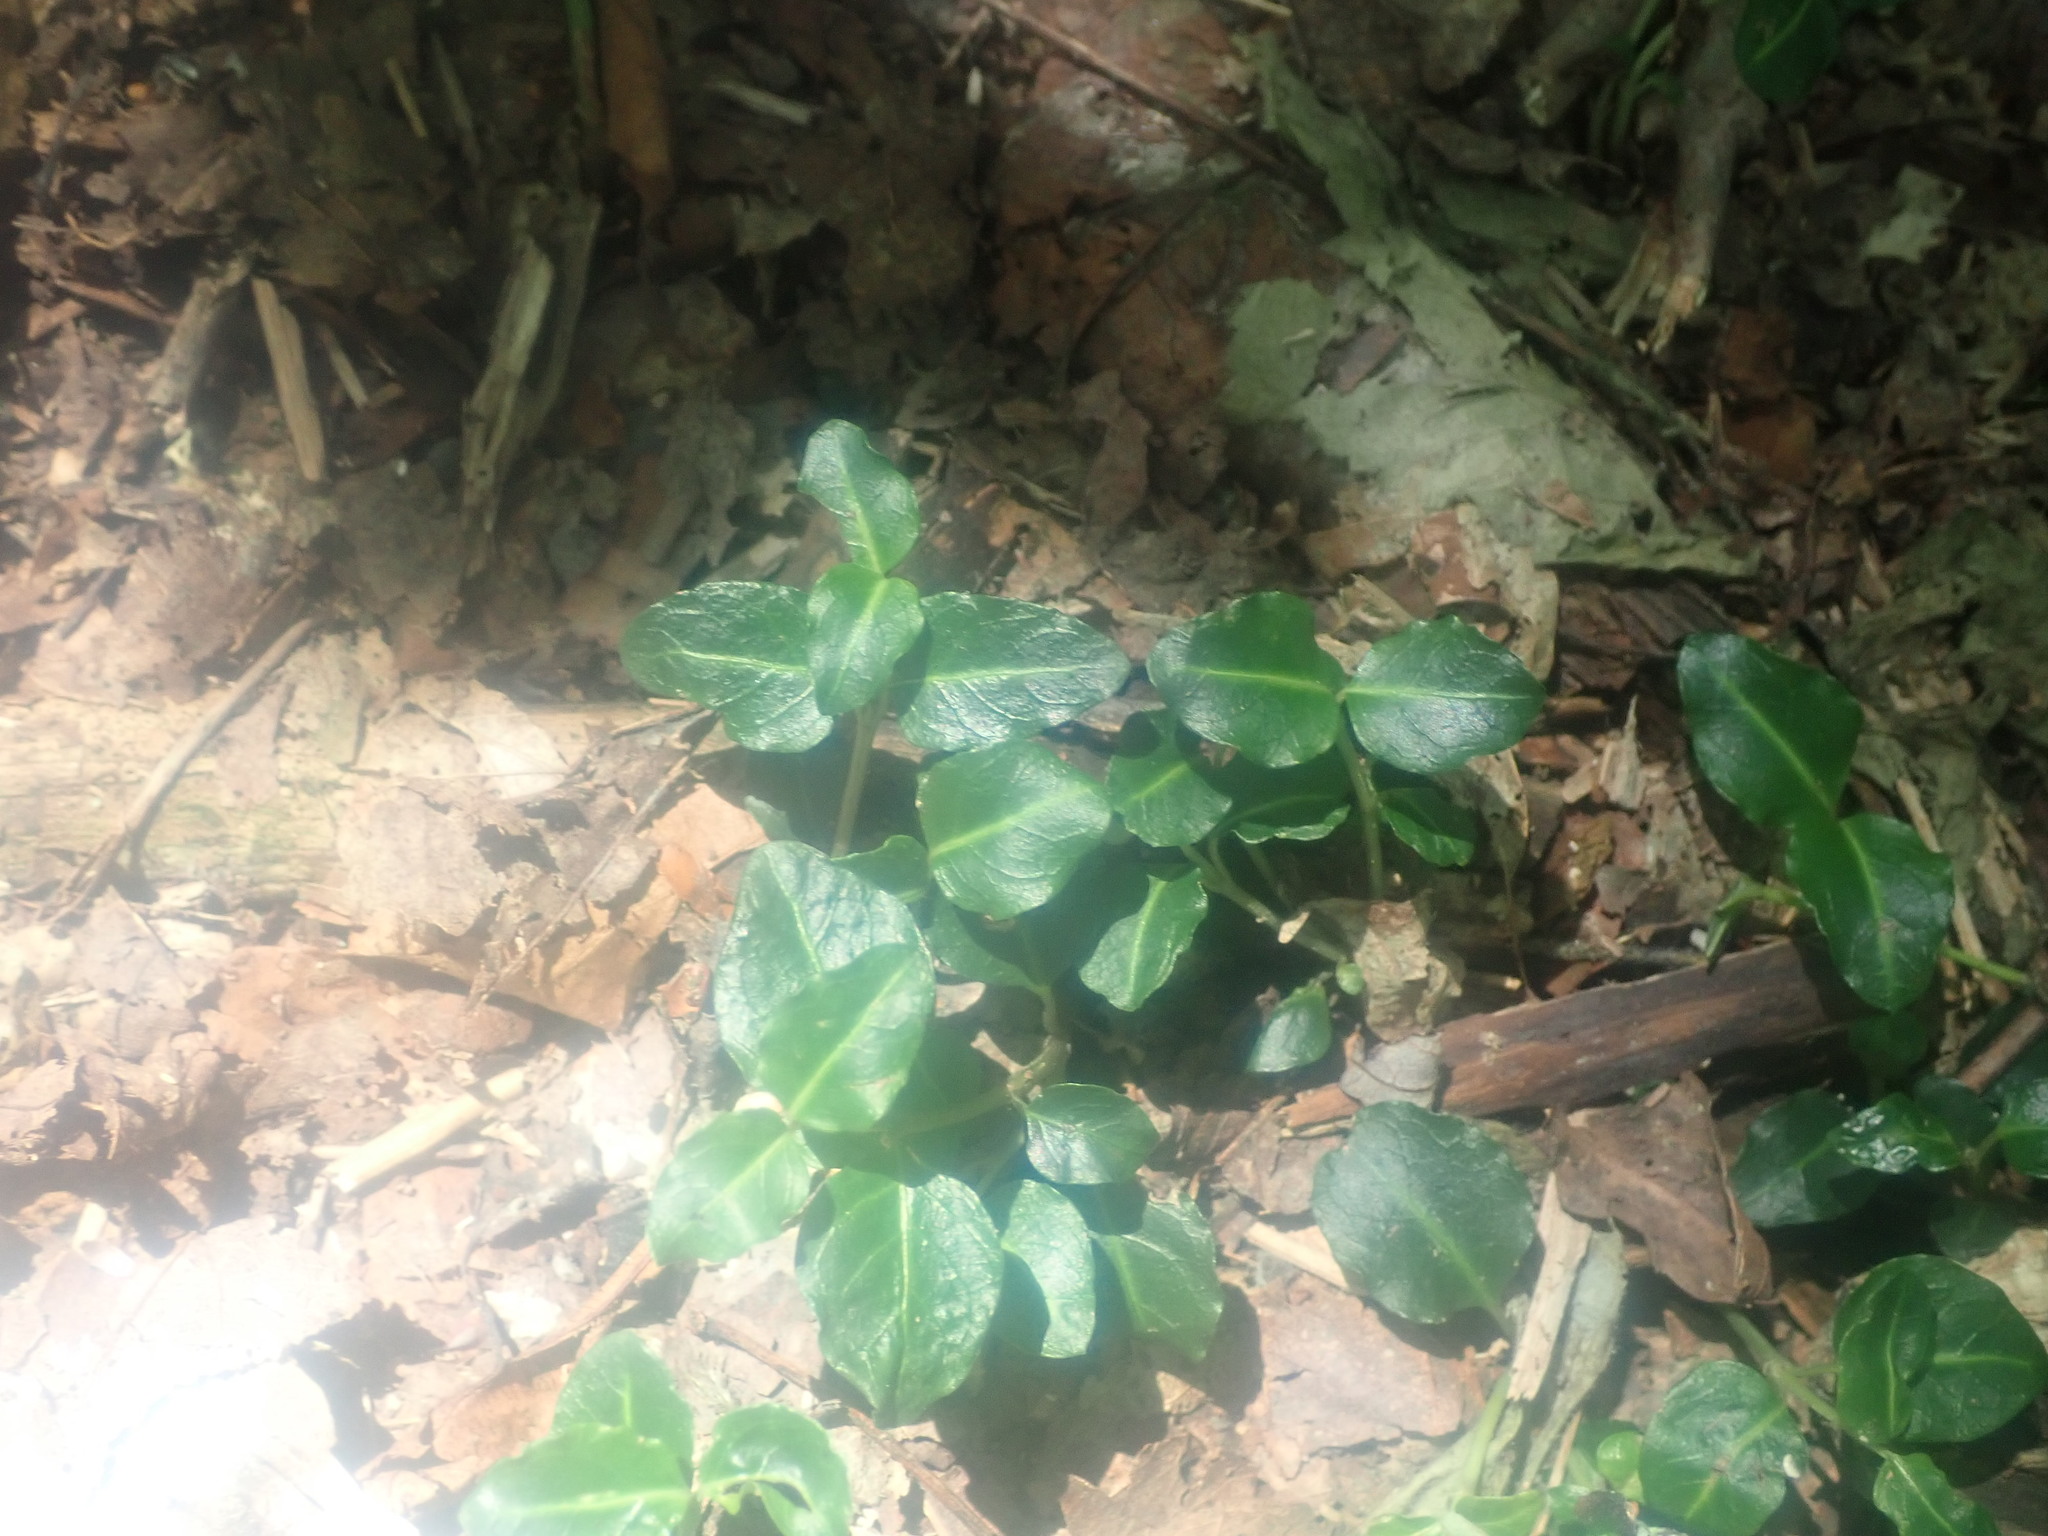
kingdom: Plantae
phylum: Tracheophyta
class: Magnoliopsida
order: Gentianales
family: Rubiaceae
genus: Mitchella
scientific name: Mitchella repens
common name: Partridge-berry
